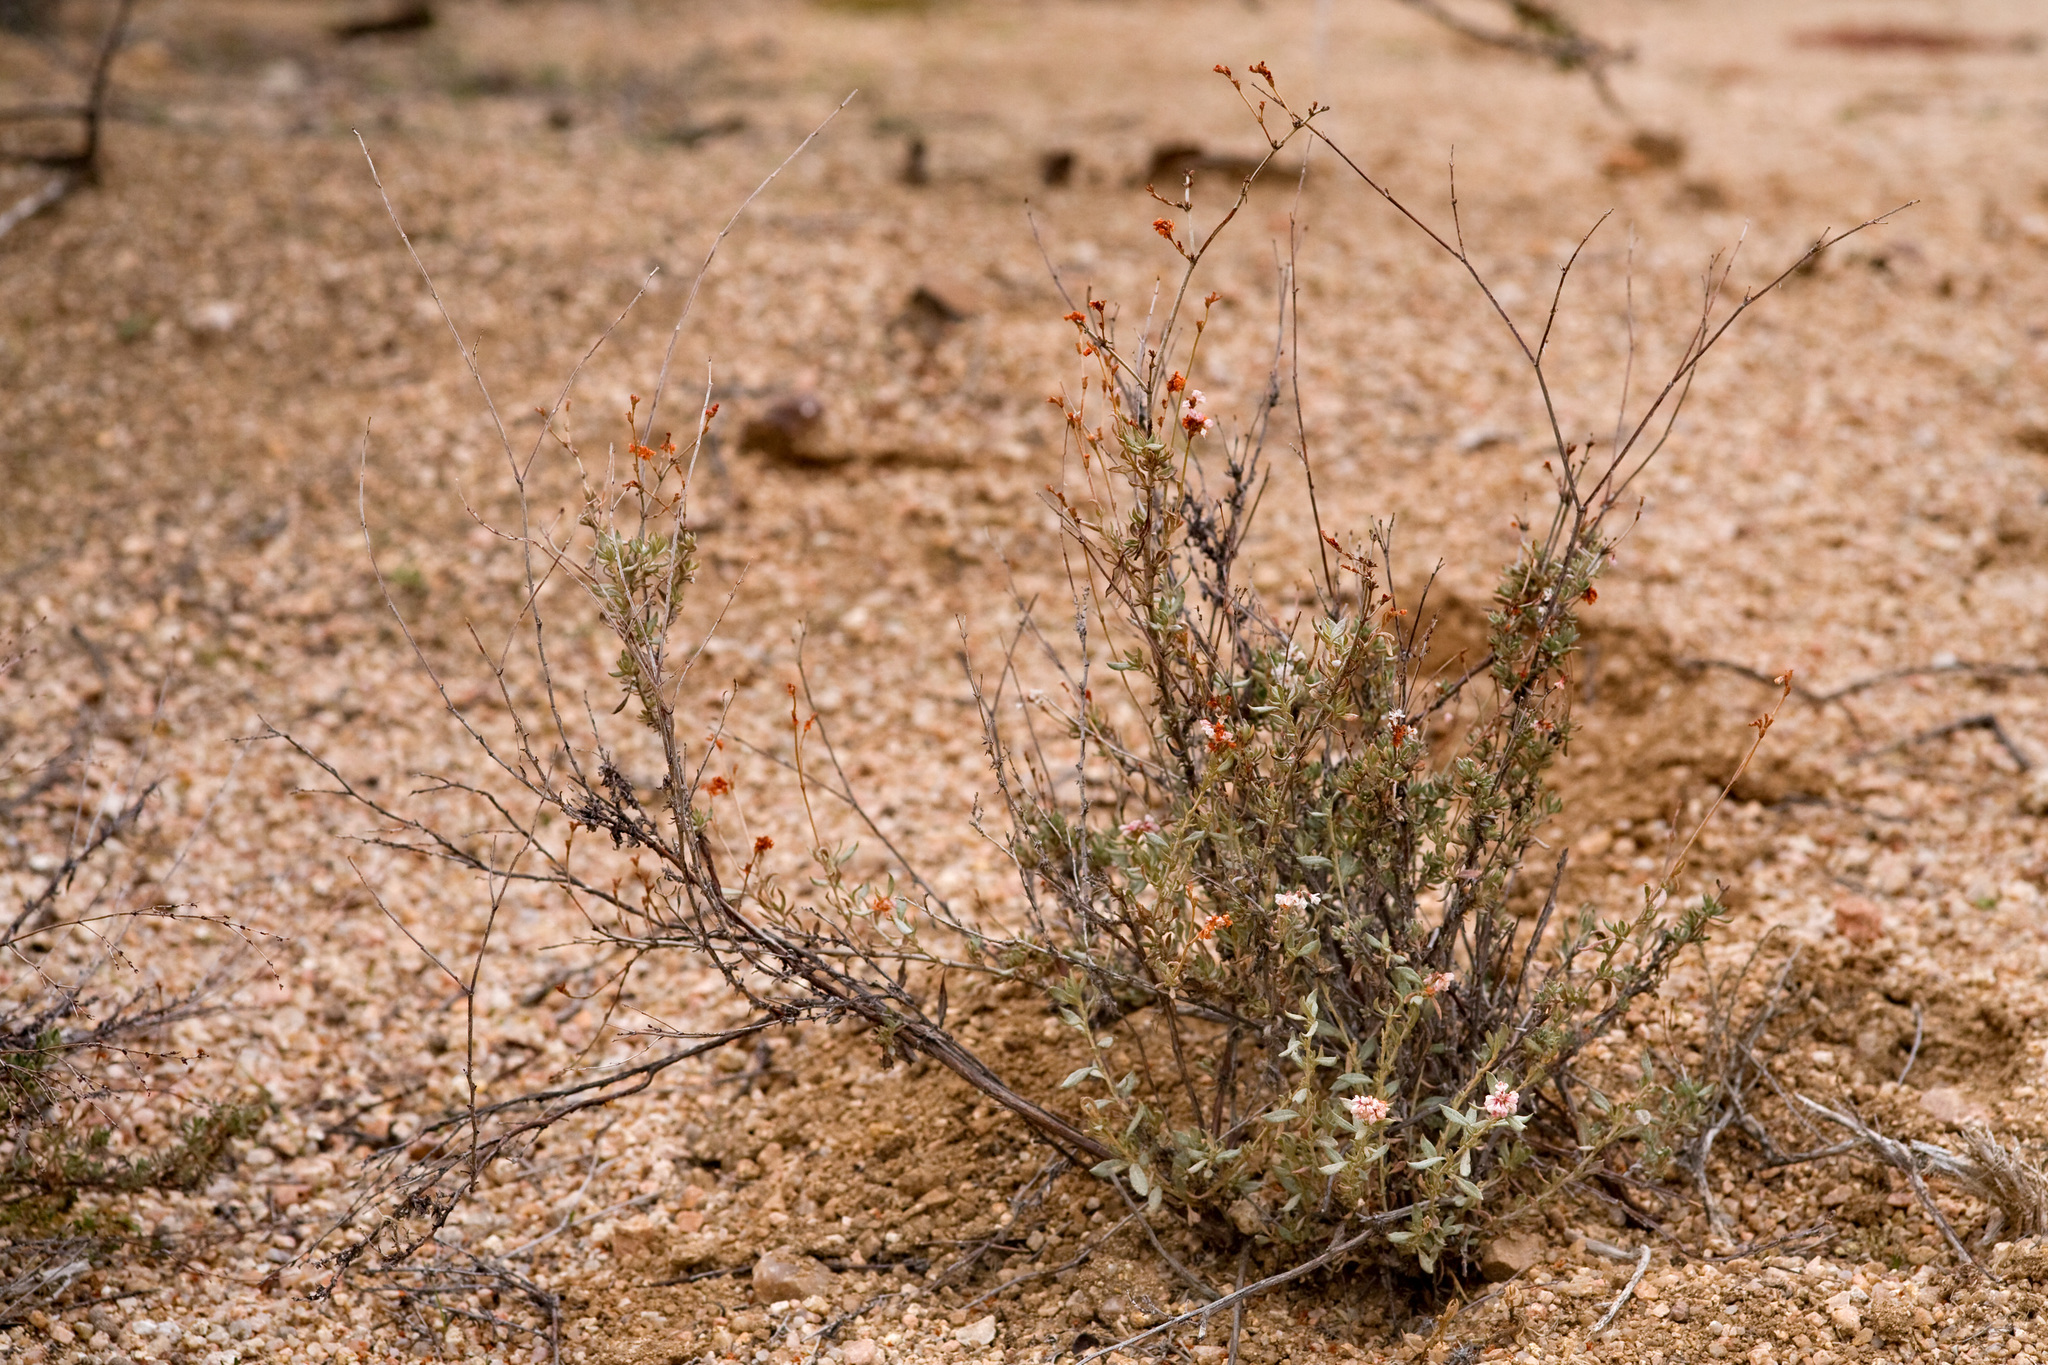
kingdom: Plantae
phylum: Tracheophyta
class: Magnoliopsida
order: Caryophyllales
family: Polygonaceae
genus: Eriogonum
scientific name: Eriogonum fasciculatum
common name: California wild buckwheat
